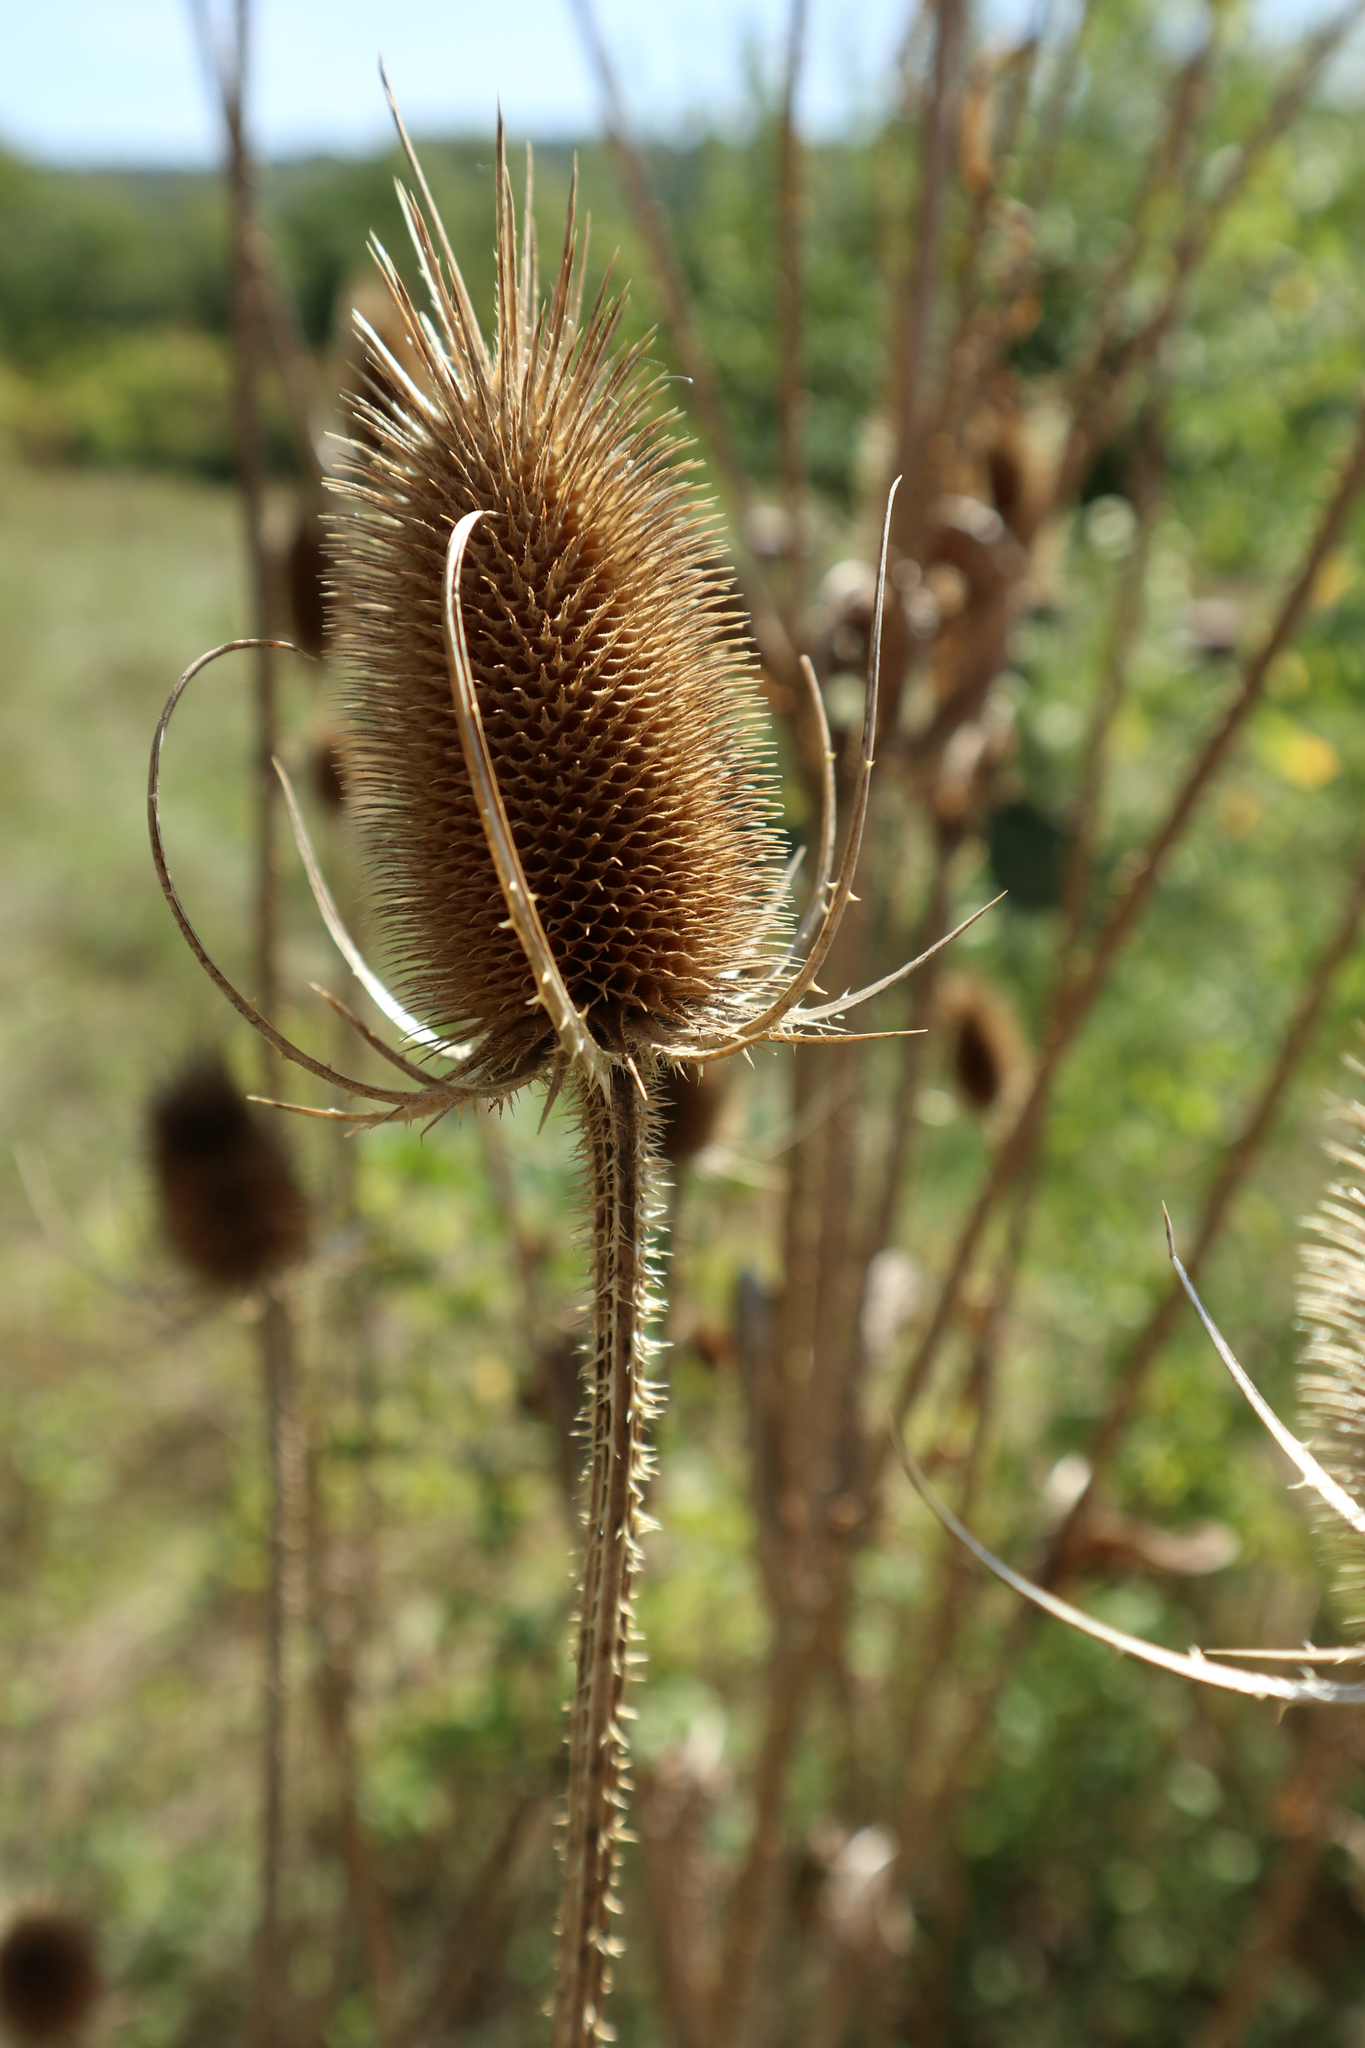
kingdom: Plantae
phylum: Tracheophyta
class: Magnoliopsida
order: Dipsacales
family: Caprifoliaceae
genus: Dipsacus
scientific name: Dipsacus fullonum
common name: Teasel
